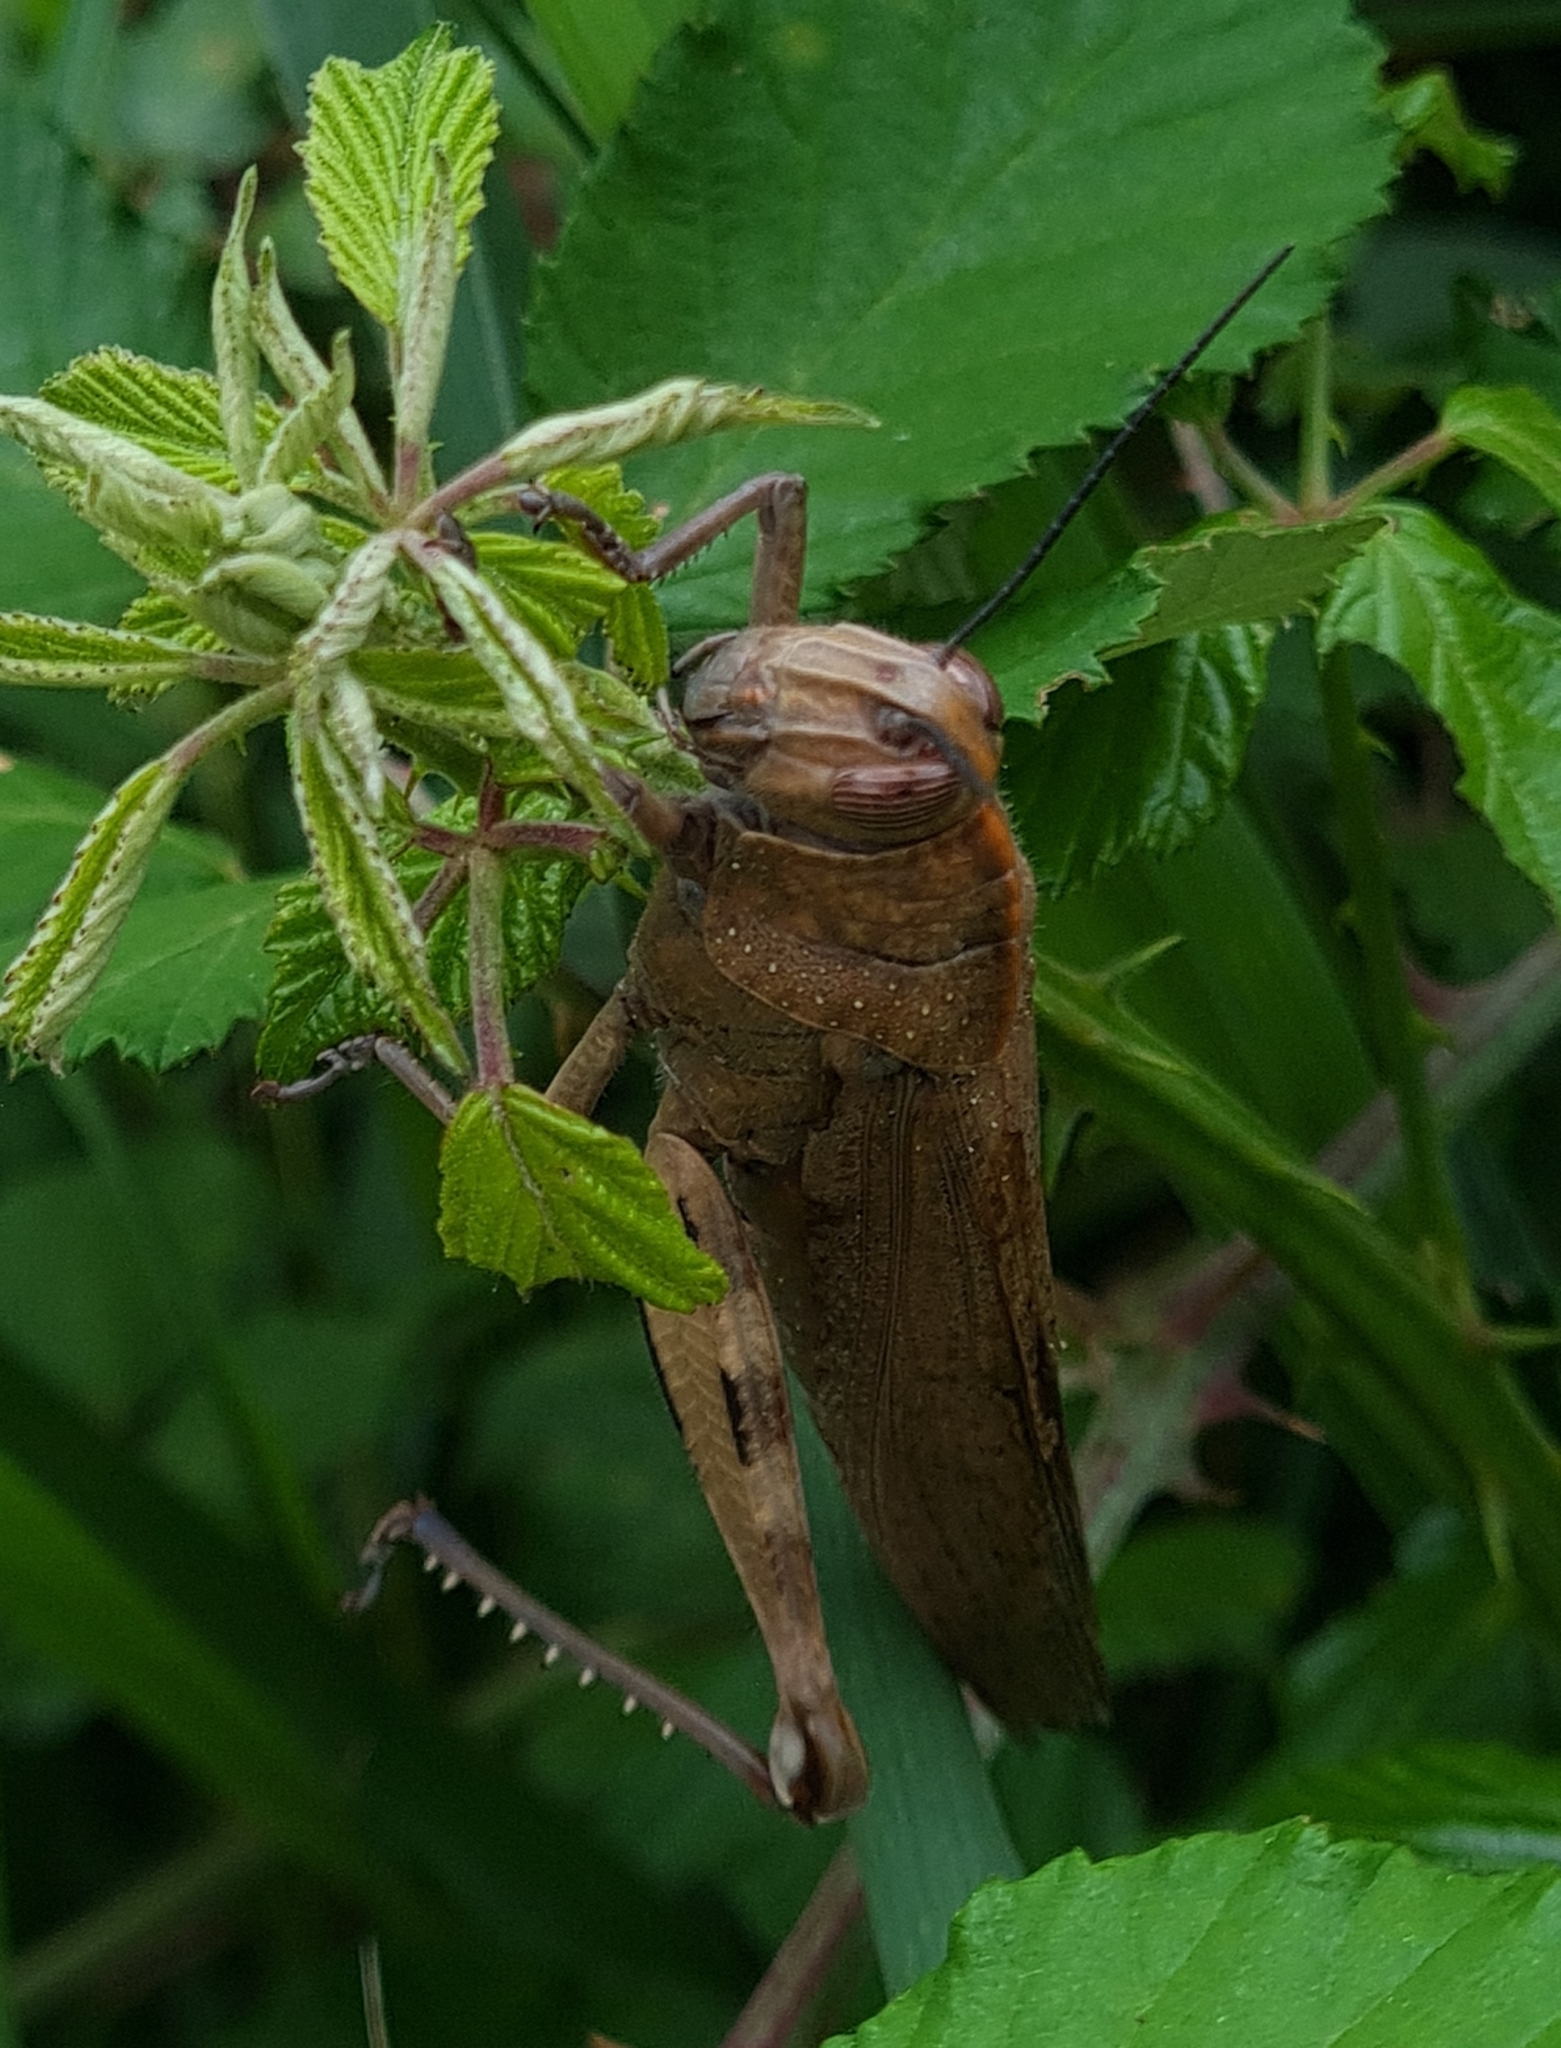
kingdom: Animalia
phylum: Arthropoda
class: Insecta
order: Orthoptera
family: Acrididae
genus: Anacridium
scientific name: Anacridium aegyptium
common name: Egyptian grasshopper
